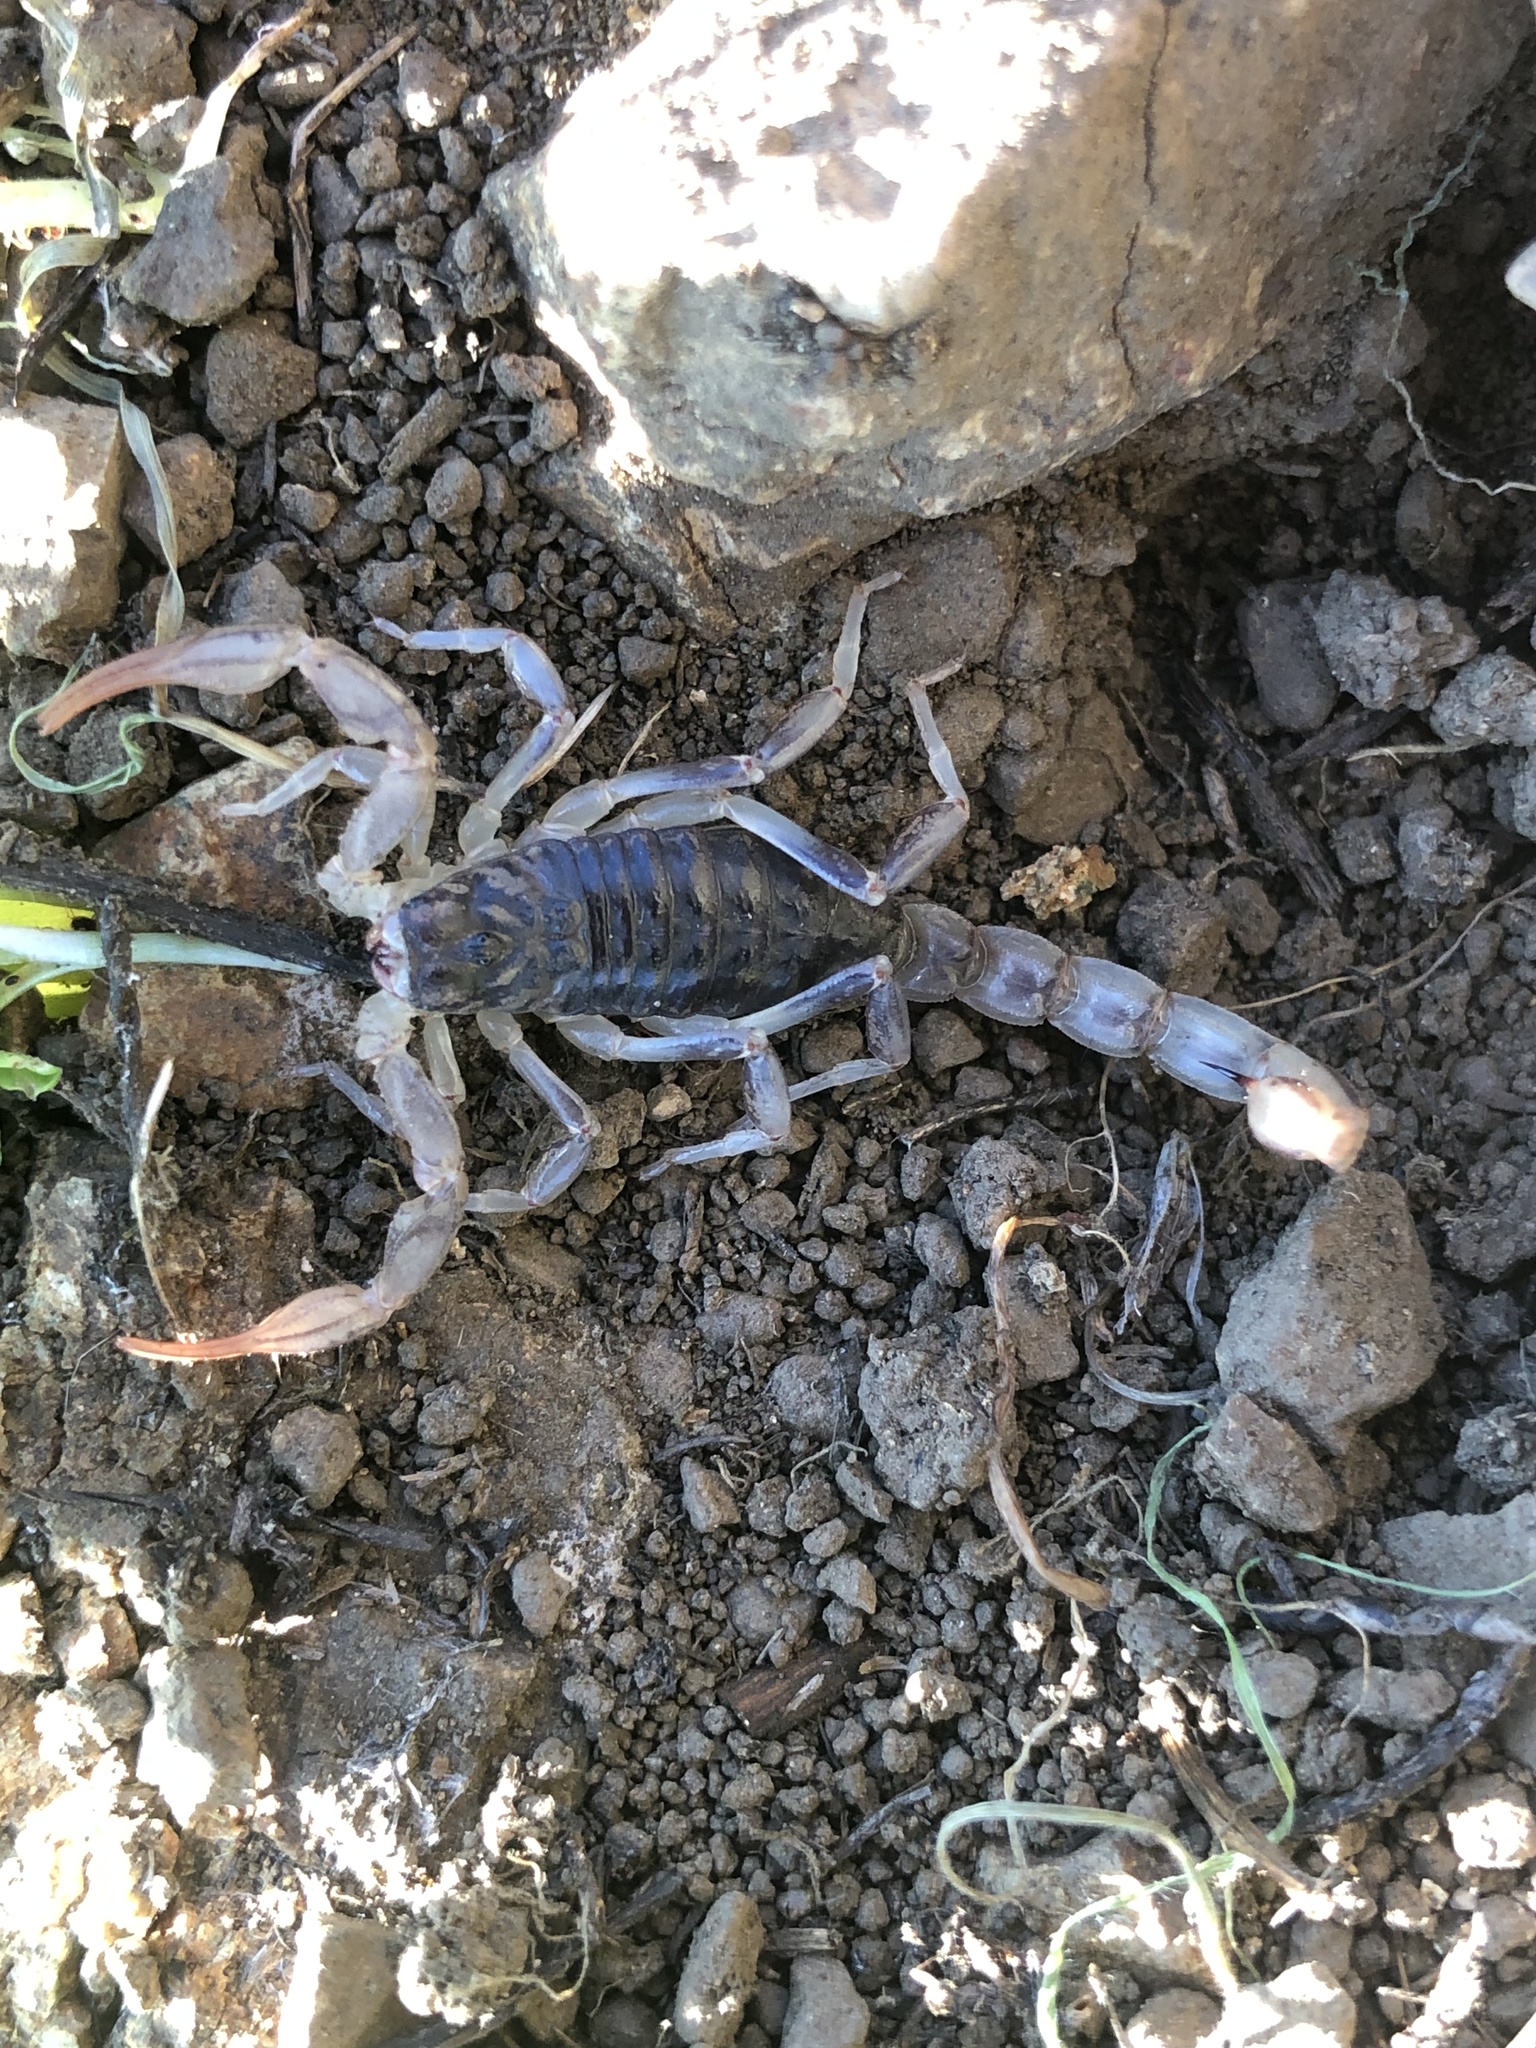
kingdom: Animalia
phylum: Arthropoda
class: Arachnida
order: Scorpiones
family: Vaejovidae
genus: Paruroctonus
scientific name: Paruroctonus silvestrii
